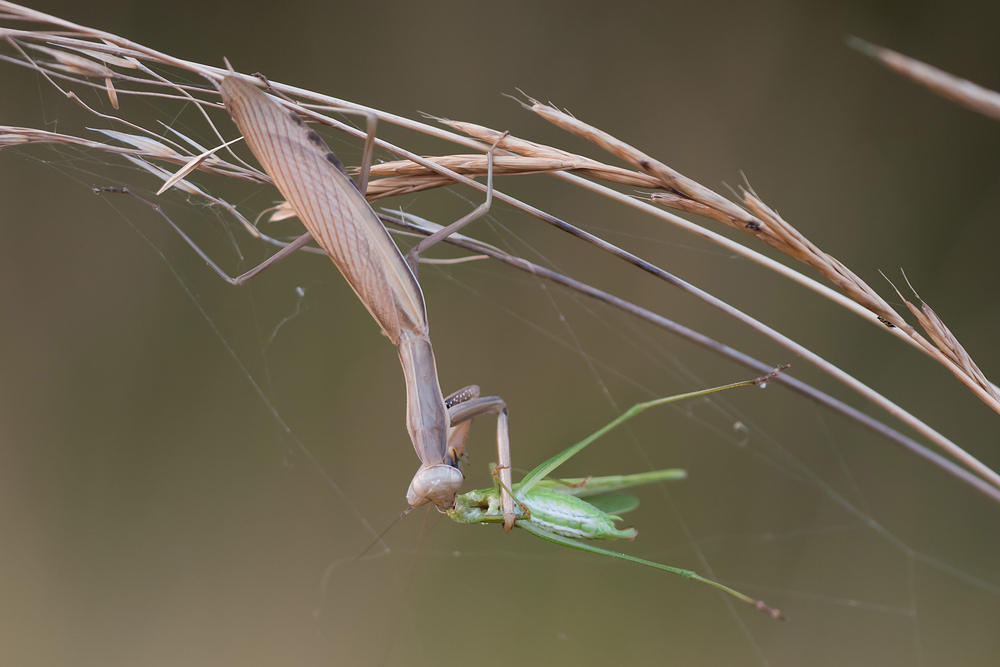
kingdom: Animalia
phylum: Arthropoda
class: Insecta
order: Mantodea
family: Mantidae
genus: Mantis
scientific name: Mantis religiosa
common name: Praying mantis
